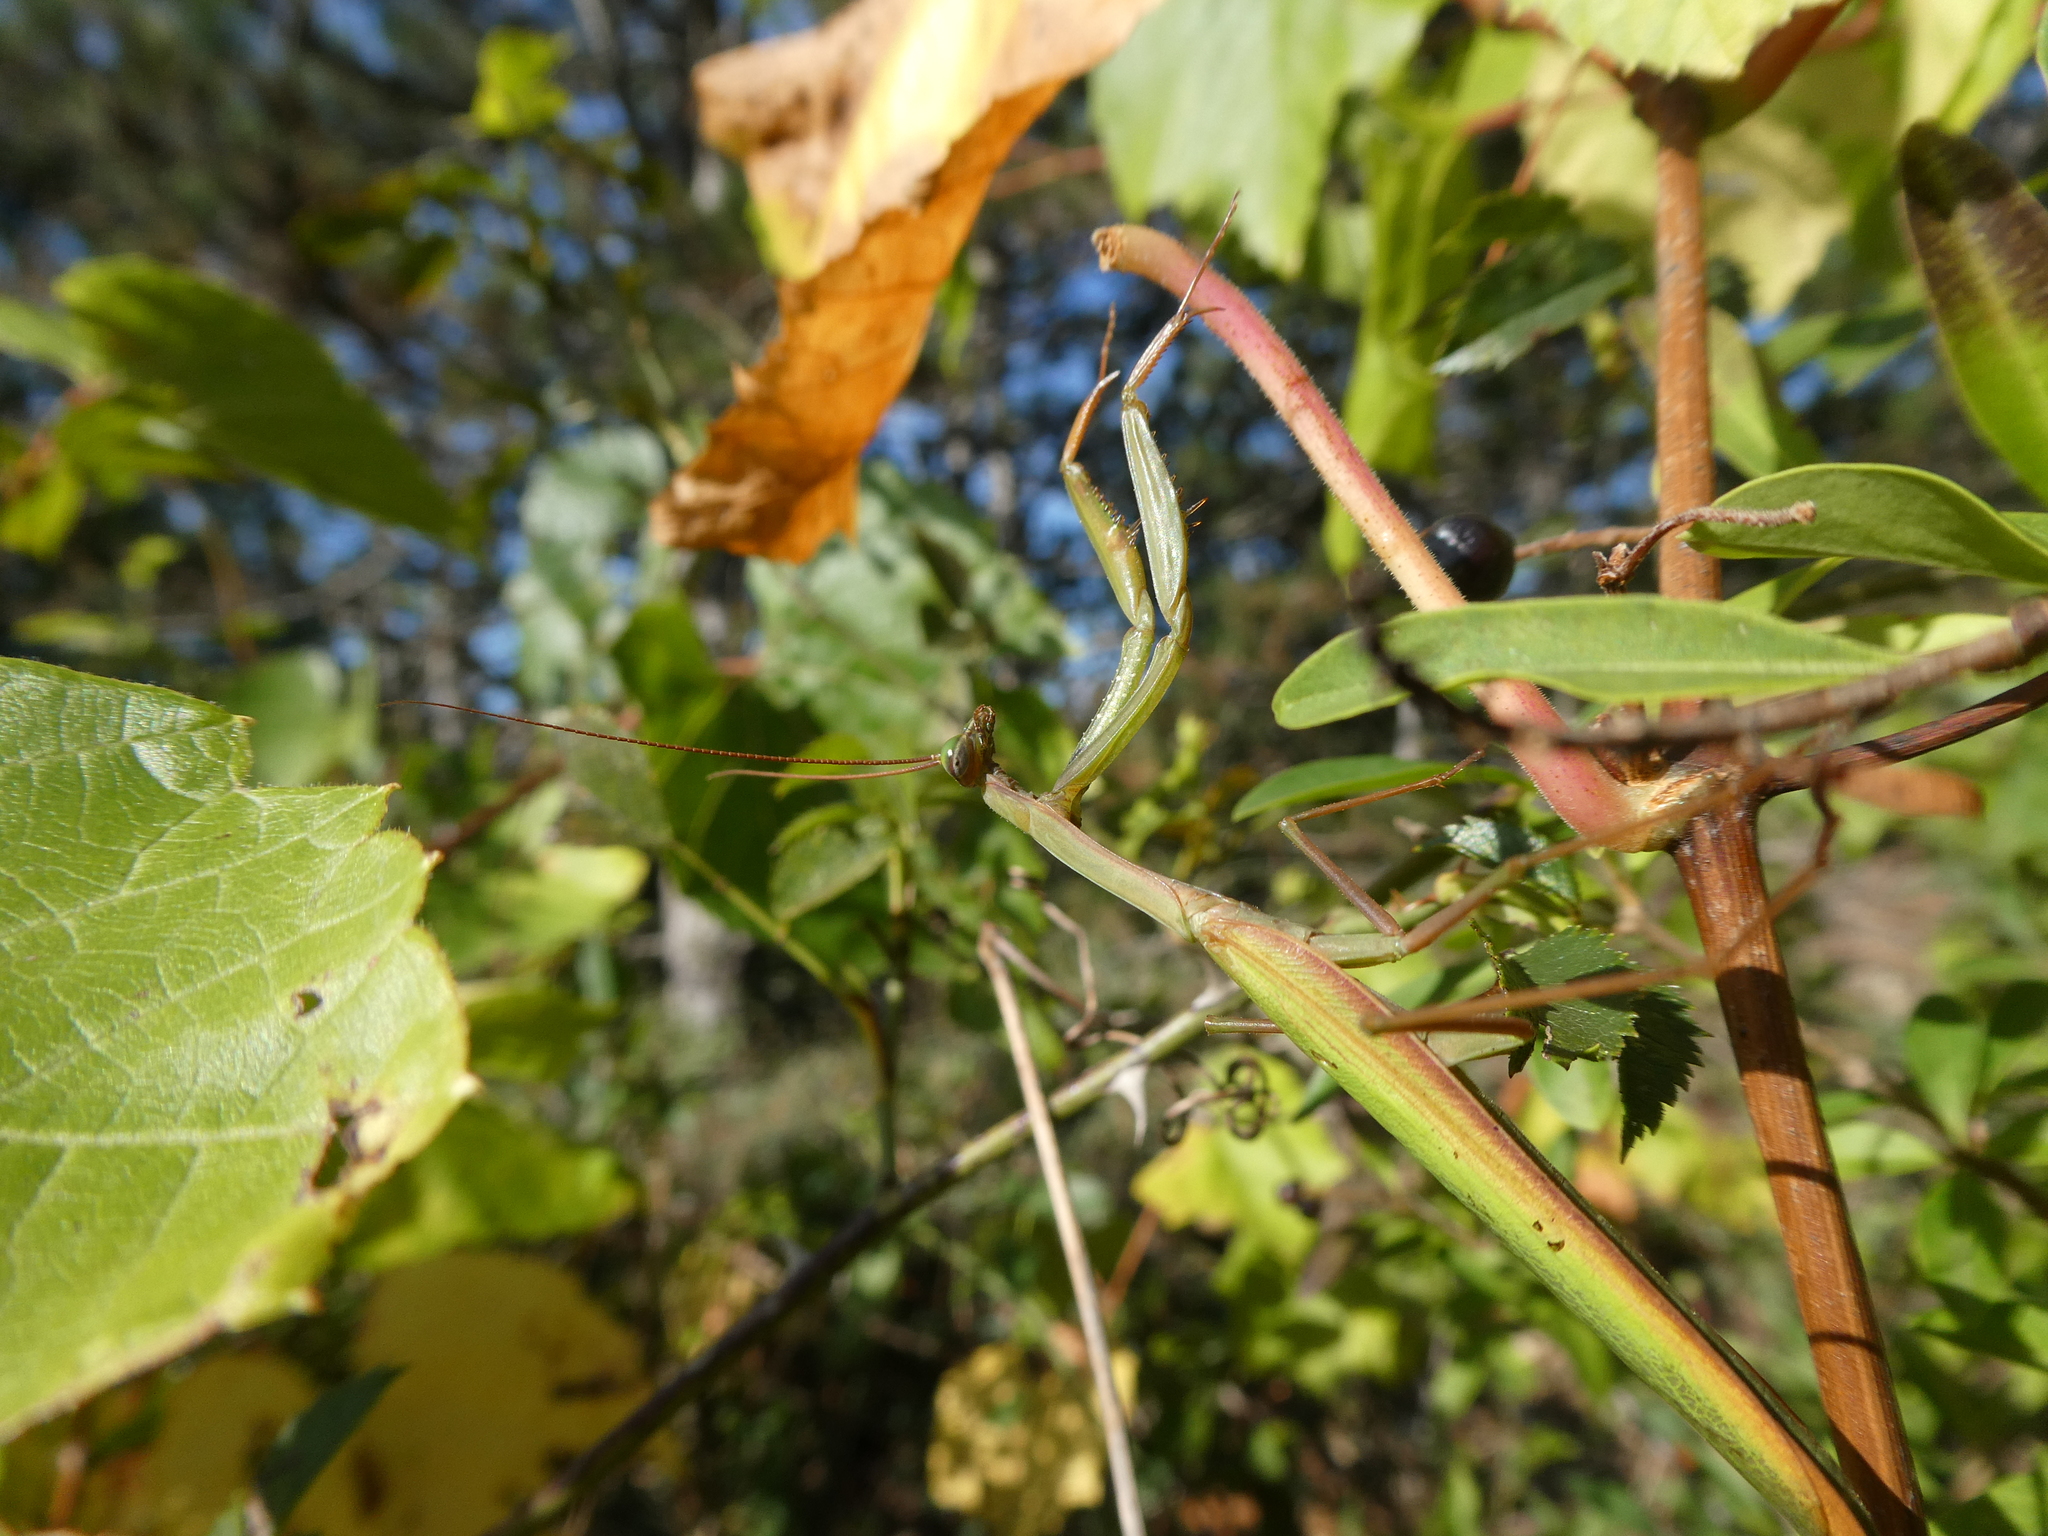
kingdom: Animalia
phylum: Arthropoda
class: Insecta
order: Mantodea
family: Mantidae
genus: Mantis
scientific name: Mantis religiosa
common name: Praying mantis
